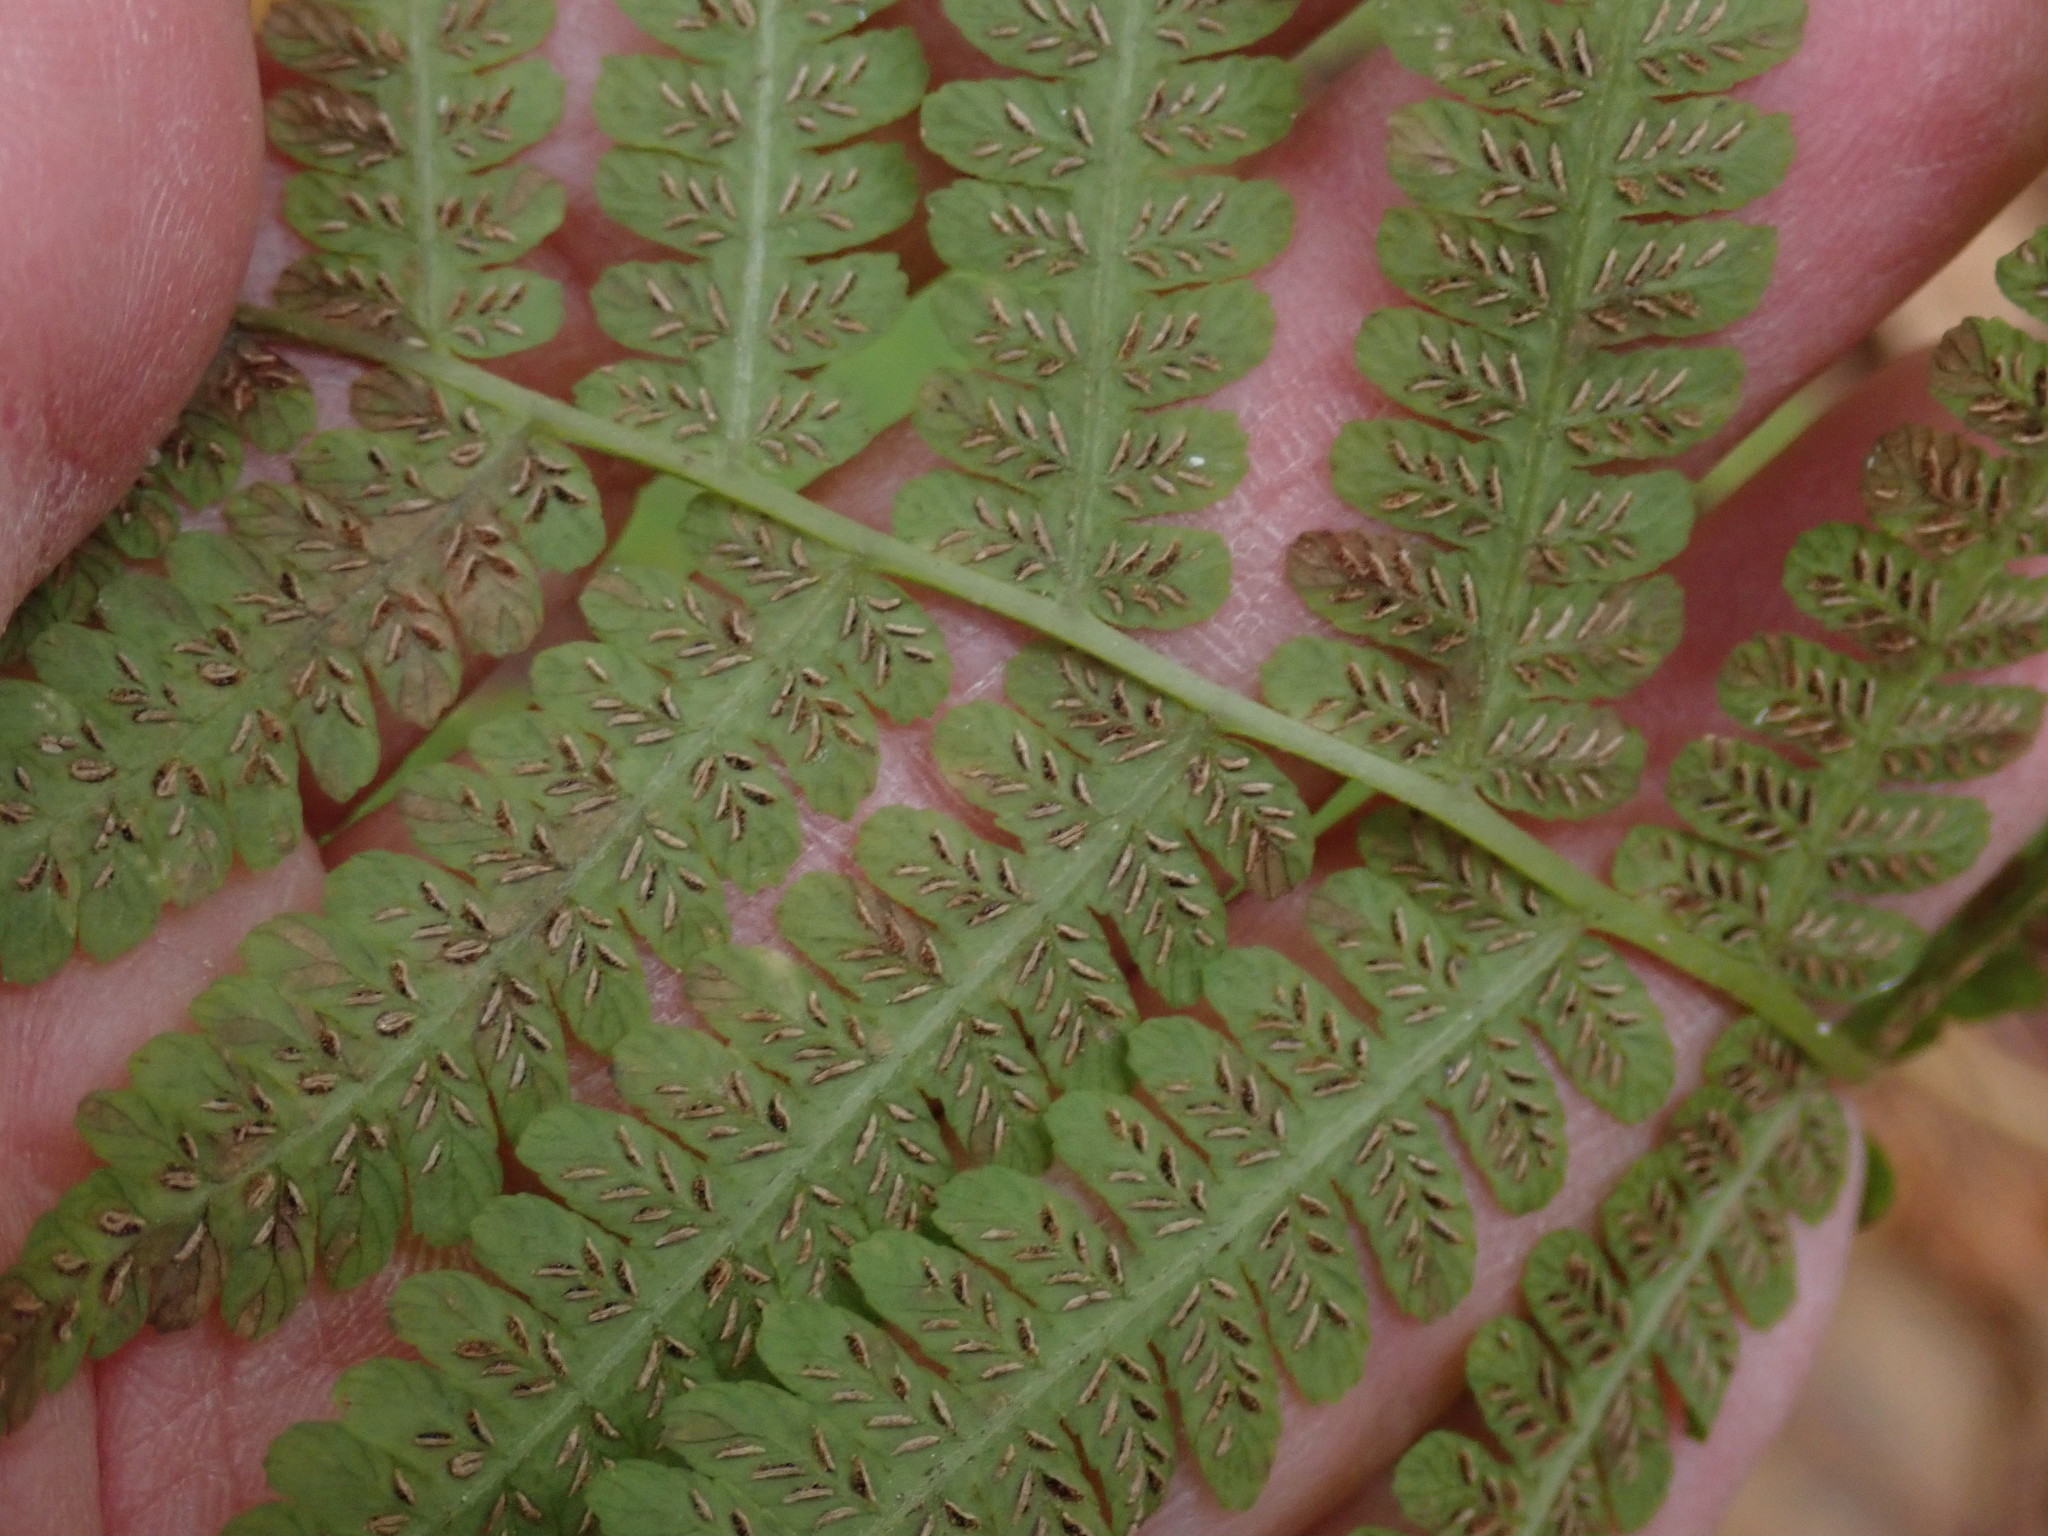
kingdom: Plantae
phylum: Tracheophyta
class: Polypodiopsida
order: Polypodiales
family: Athyriaceae
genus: Deparia
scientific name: Deparia acrostichoides
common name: Silver false spleenwort
